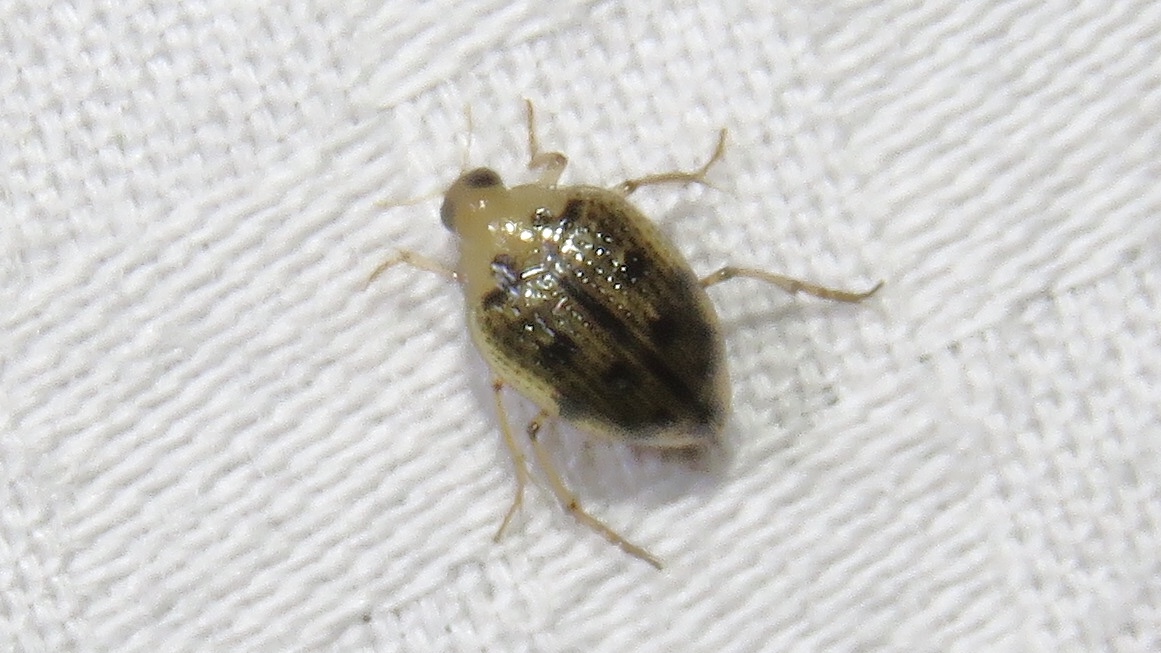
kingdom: Animalia
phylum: Arthropoda
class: Insecta
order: Coleoptera
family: Haliplidae
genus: Peltodytes
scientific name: Peltodytes duodecimpunctatus
